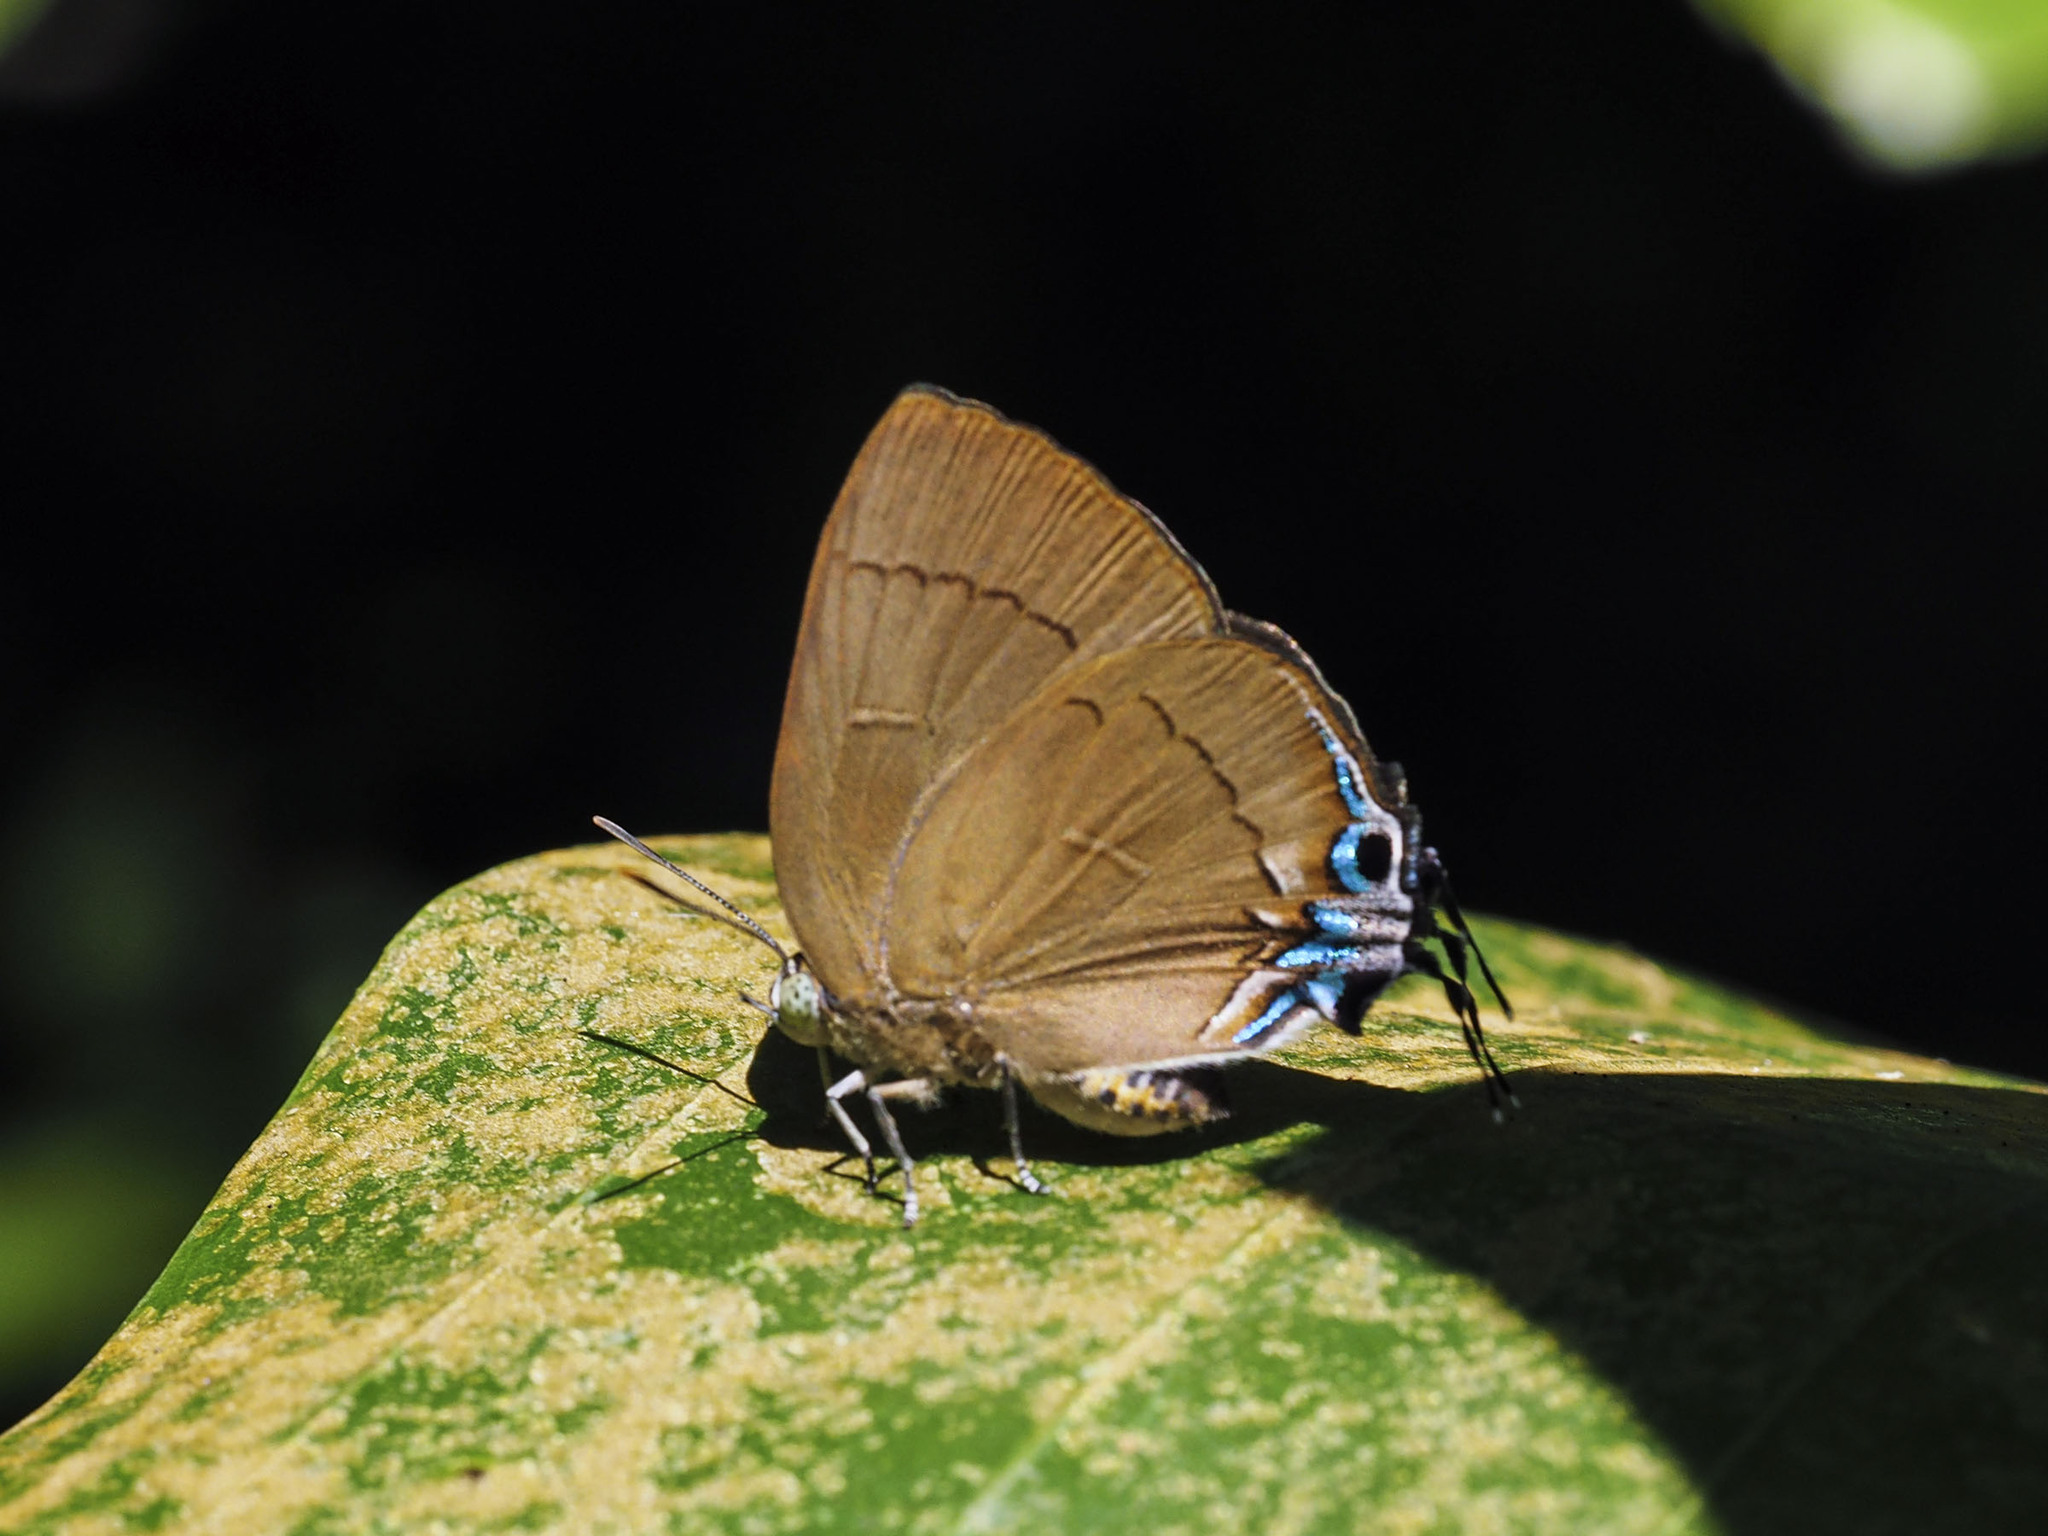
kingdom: Animalia
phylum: Arthropoda
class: Insecta
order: Lepidoptera
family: Lycaenidae
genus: Remelana
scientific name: Remelana jangala
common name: Chocolate royal
